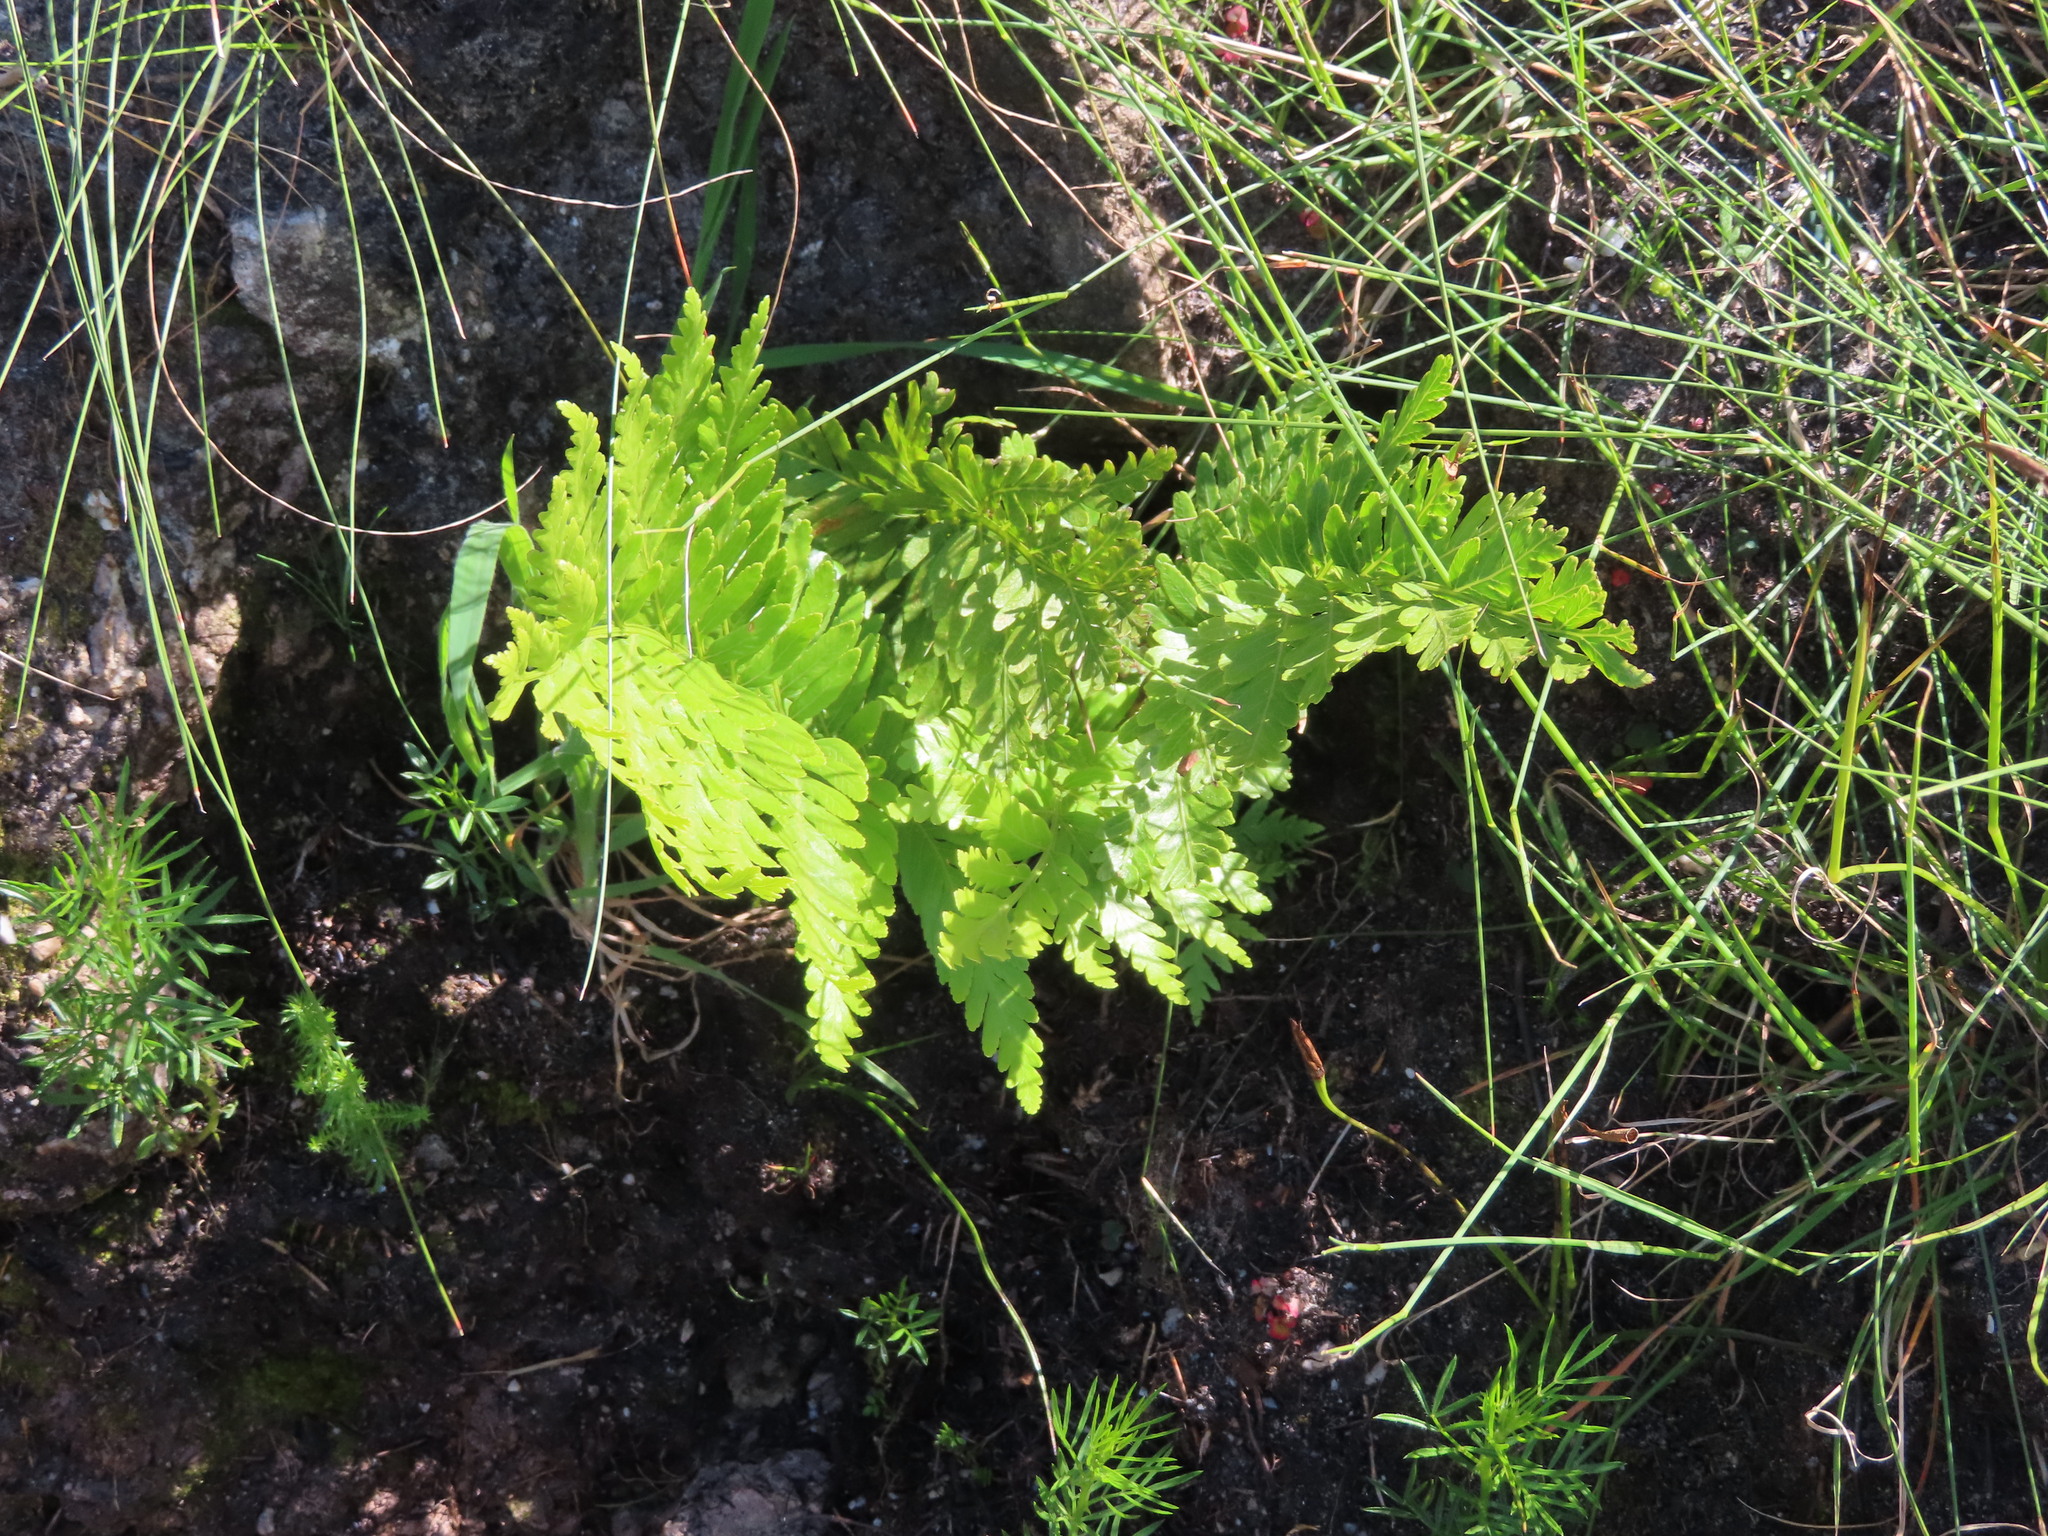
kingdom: Plantae
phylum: Tracheophyta
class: Polypodiopsida
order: Polypodiales
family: Blechnaceae
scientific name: Blechnaceae
